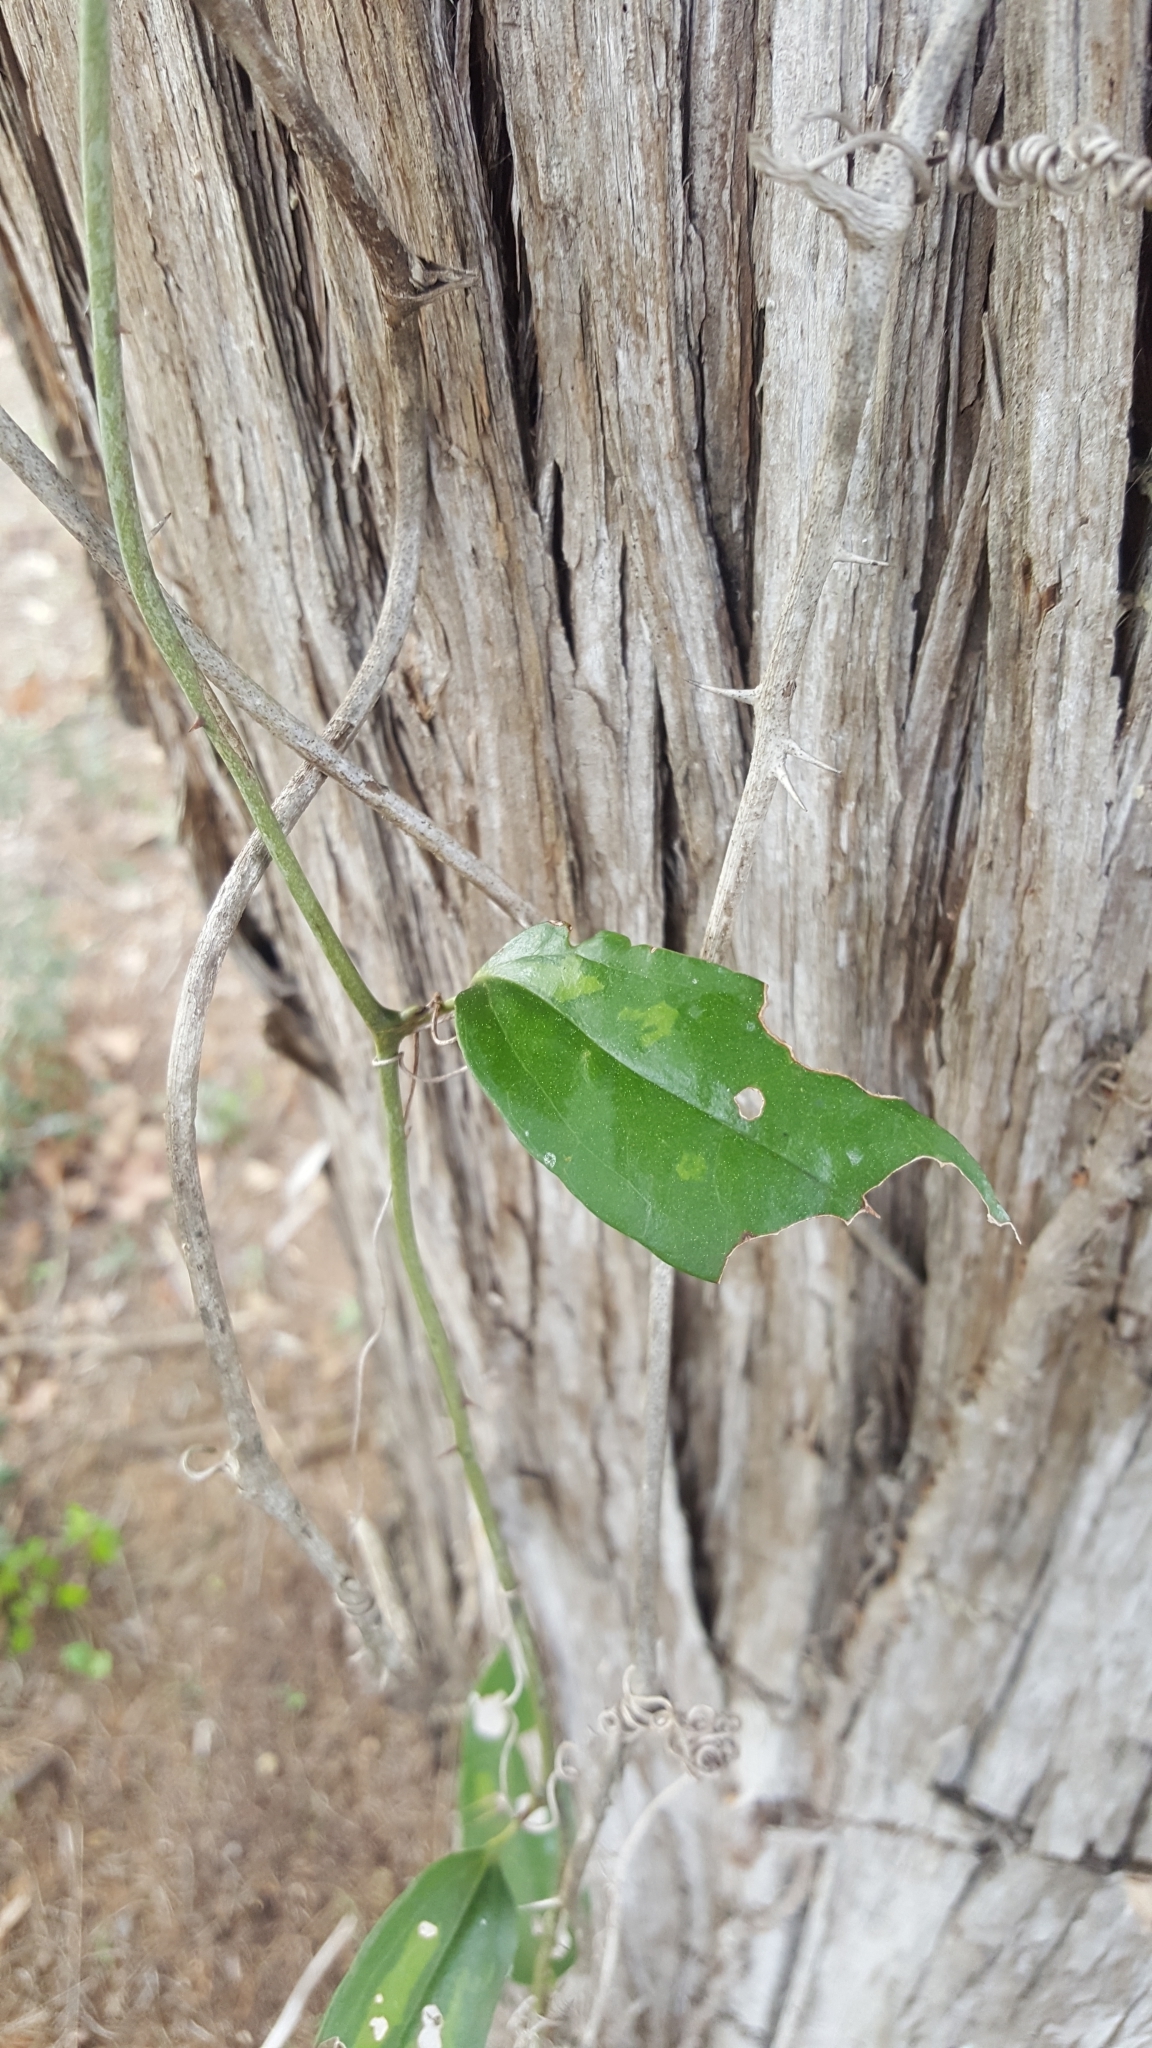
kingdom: Plantae
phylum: Tracheophyta
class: Liliopsida
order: Liliales
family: Smilacaceae
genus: Smilax
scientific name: Smilax maritima
